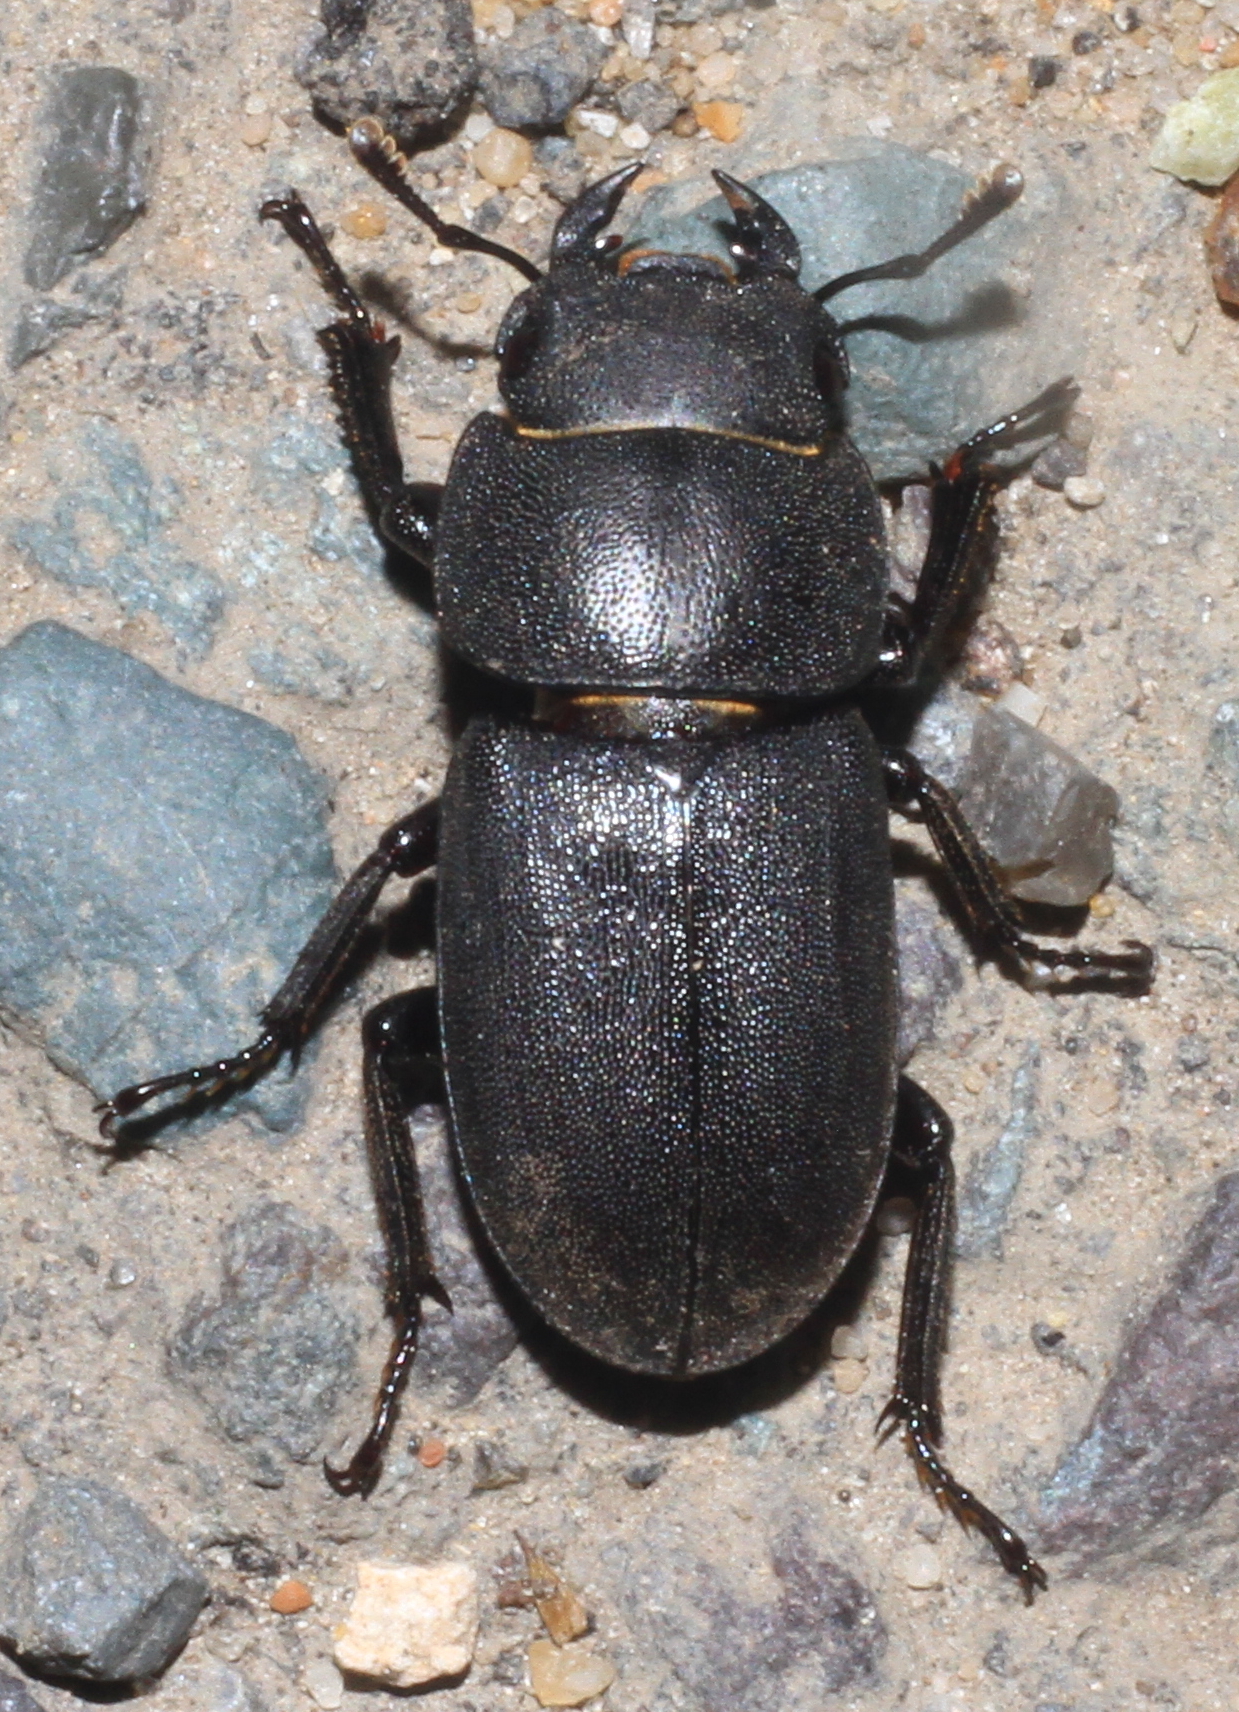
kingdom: Animalia
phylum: Arthropoda
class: Insecta
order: Coleoptera
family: Lucanidae
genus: Dorcus
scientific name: Dorcus parallelipipedus
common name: Lesser stag beetle
